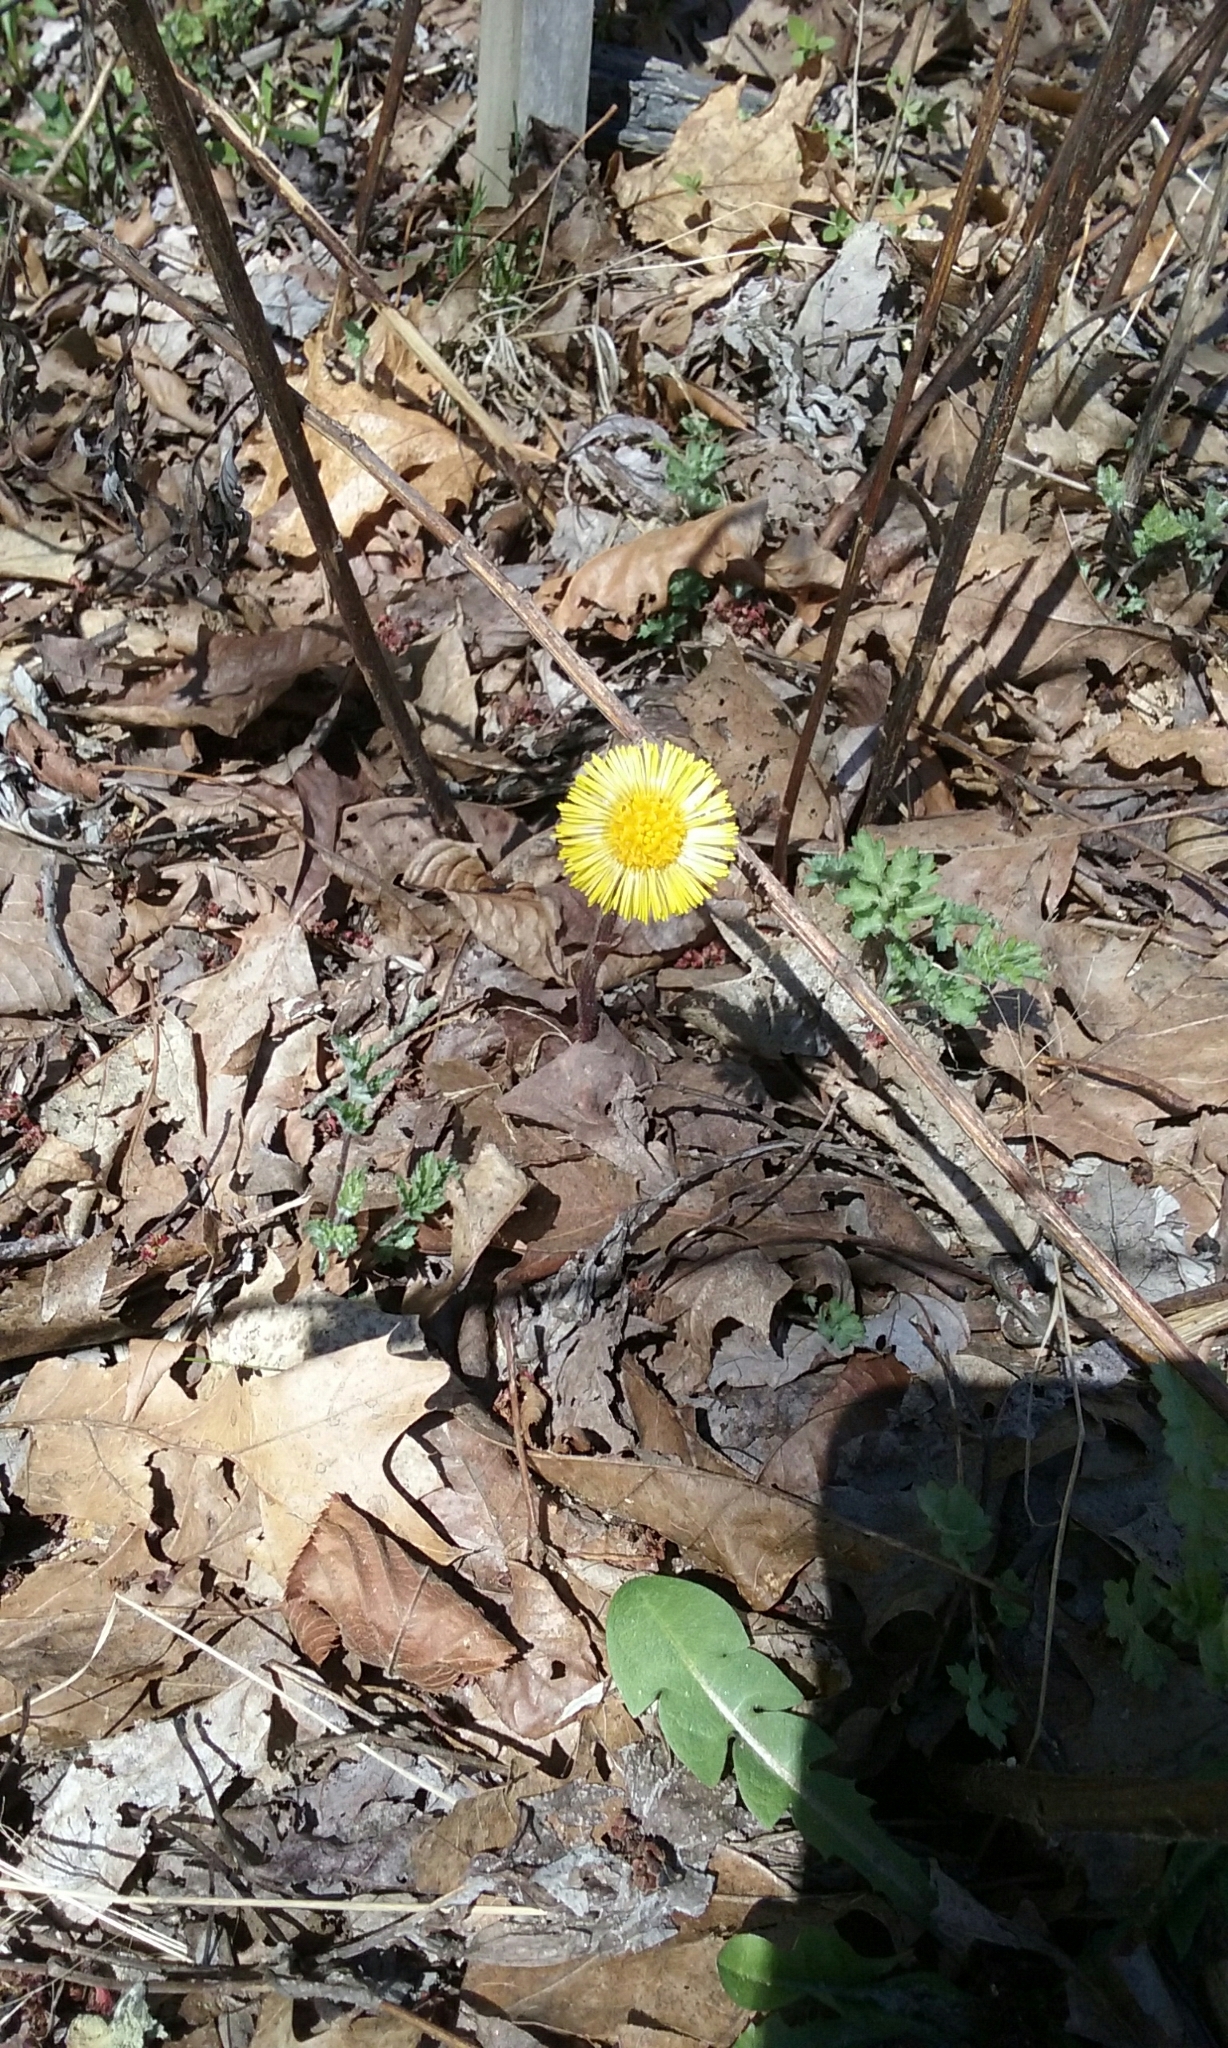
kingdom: Plantae
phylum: Tracheophyta
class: Magnoliopsida
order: Asterales
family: Asteraceae
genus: Tussilago
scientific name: Tussilago farfara
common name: Coltsfoot
